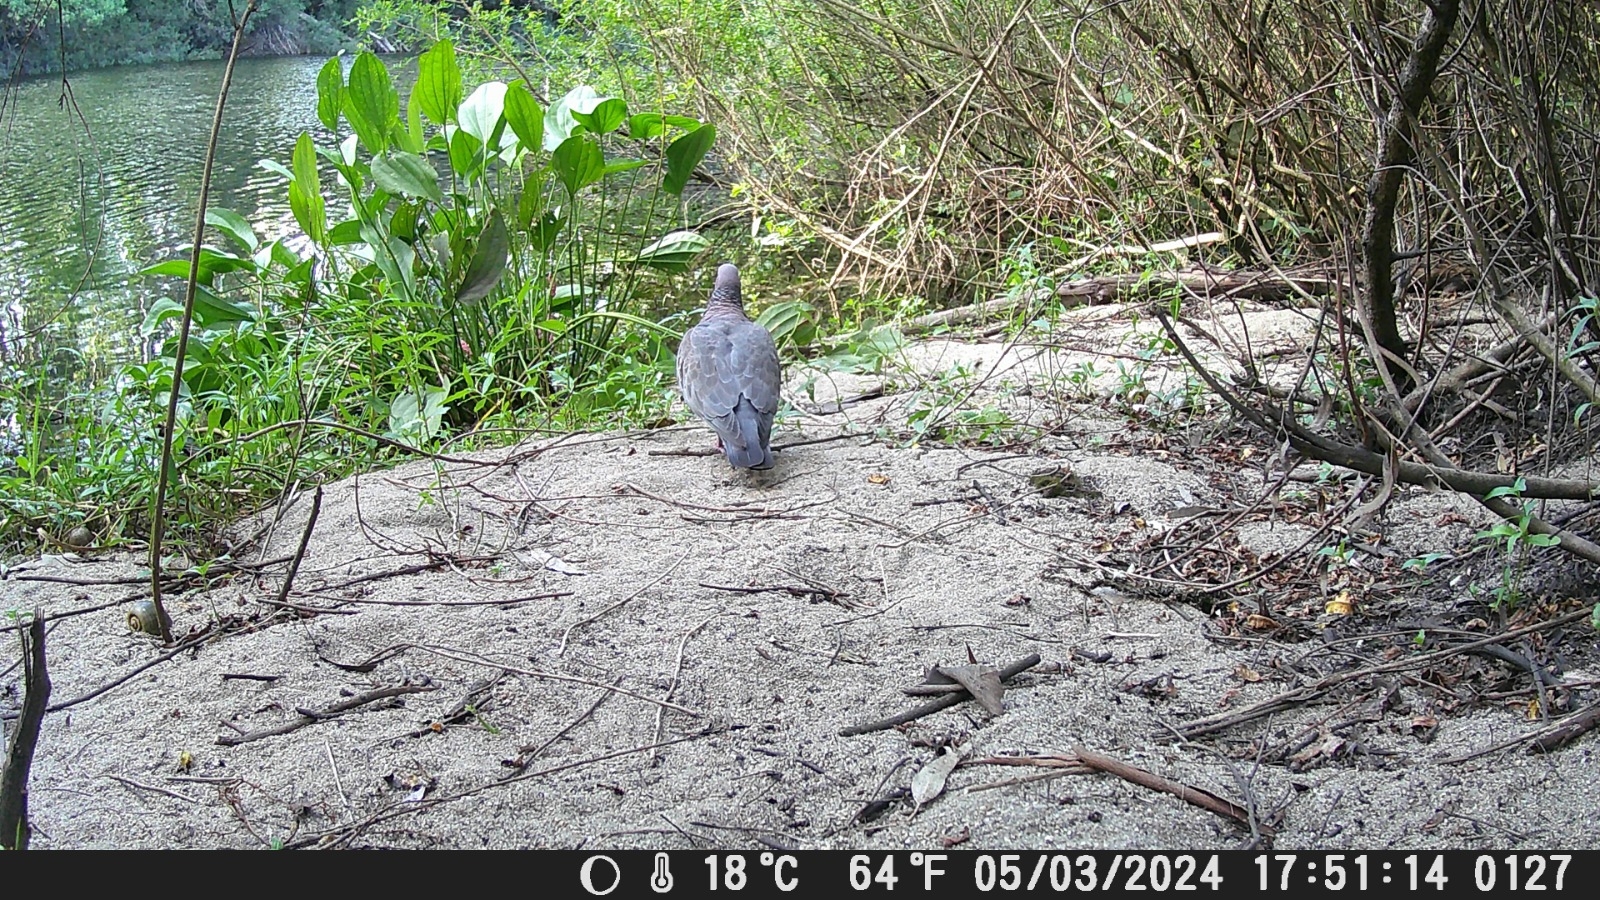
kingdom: Animalia
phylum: Chordata
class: Aves
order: Columbiformes
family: Columbidae
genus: Patagioenas
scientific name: Patagioenas picazuro
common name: Picazuro pigeon
